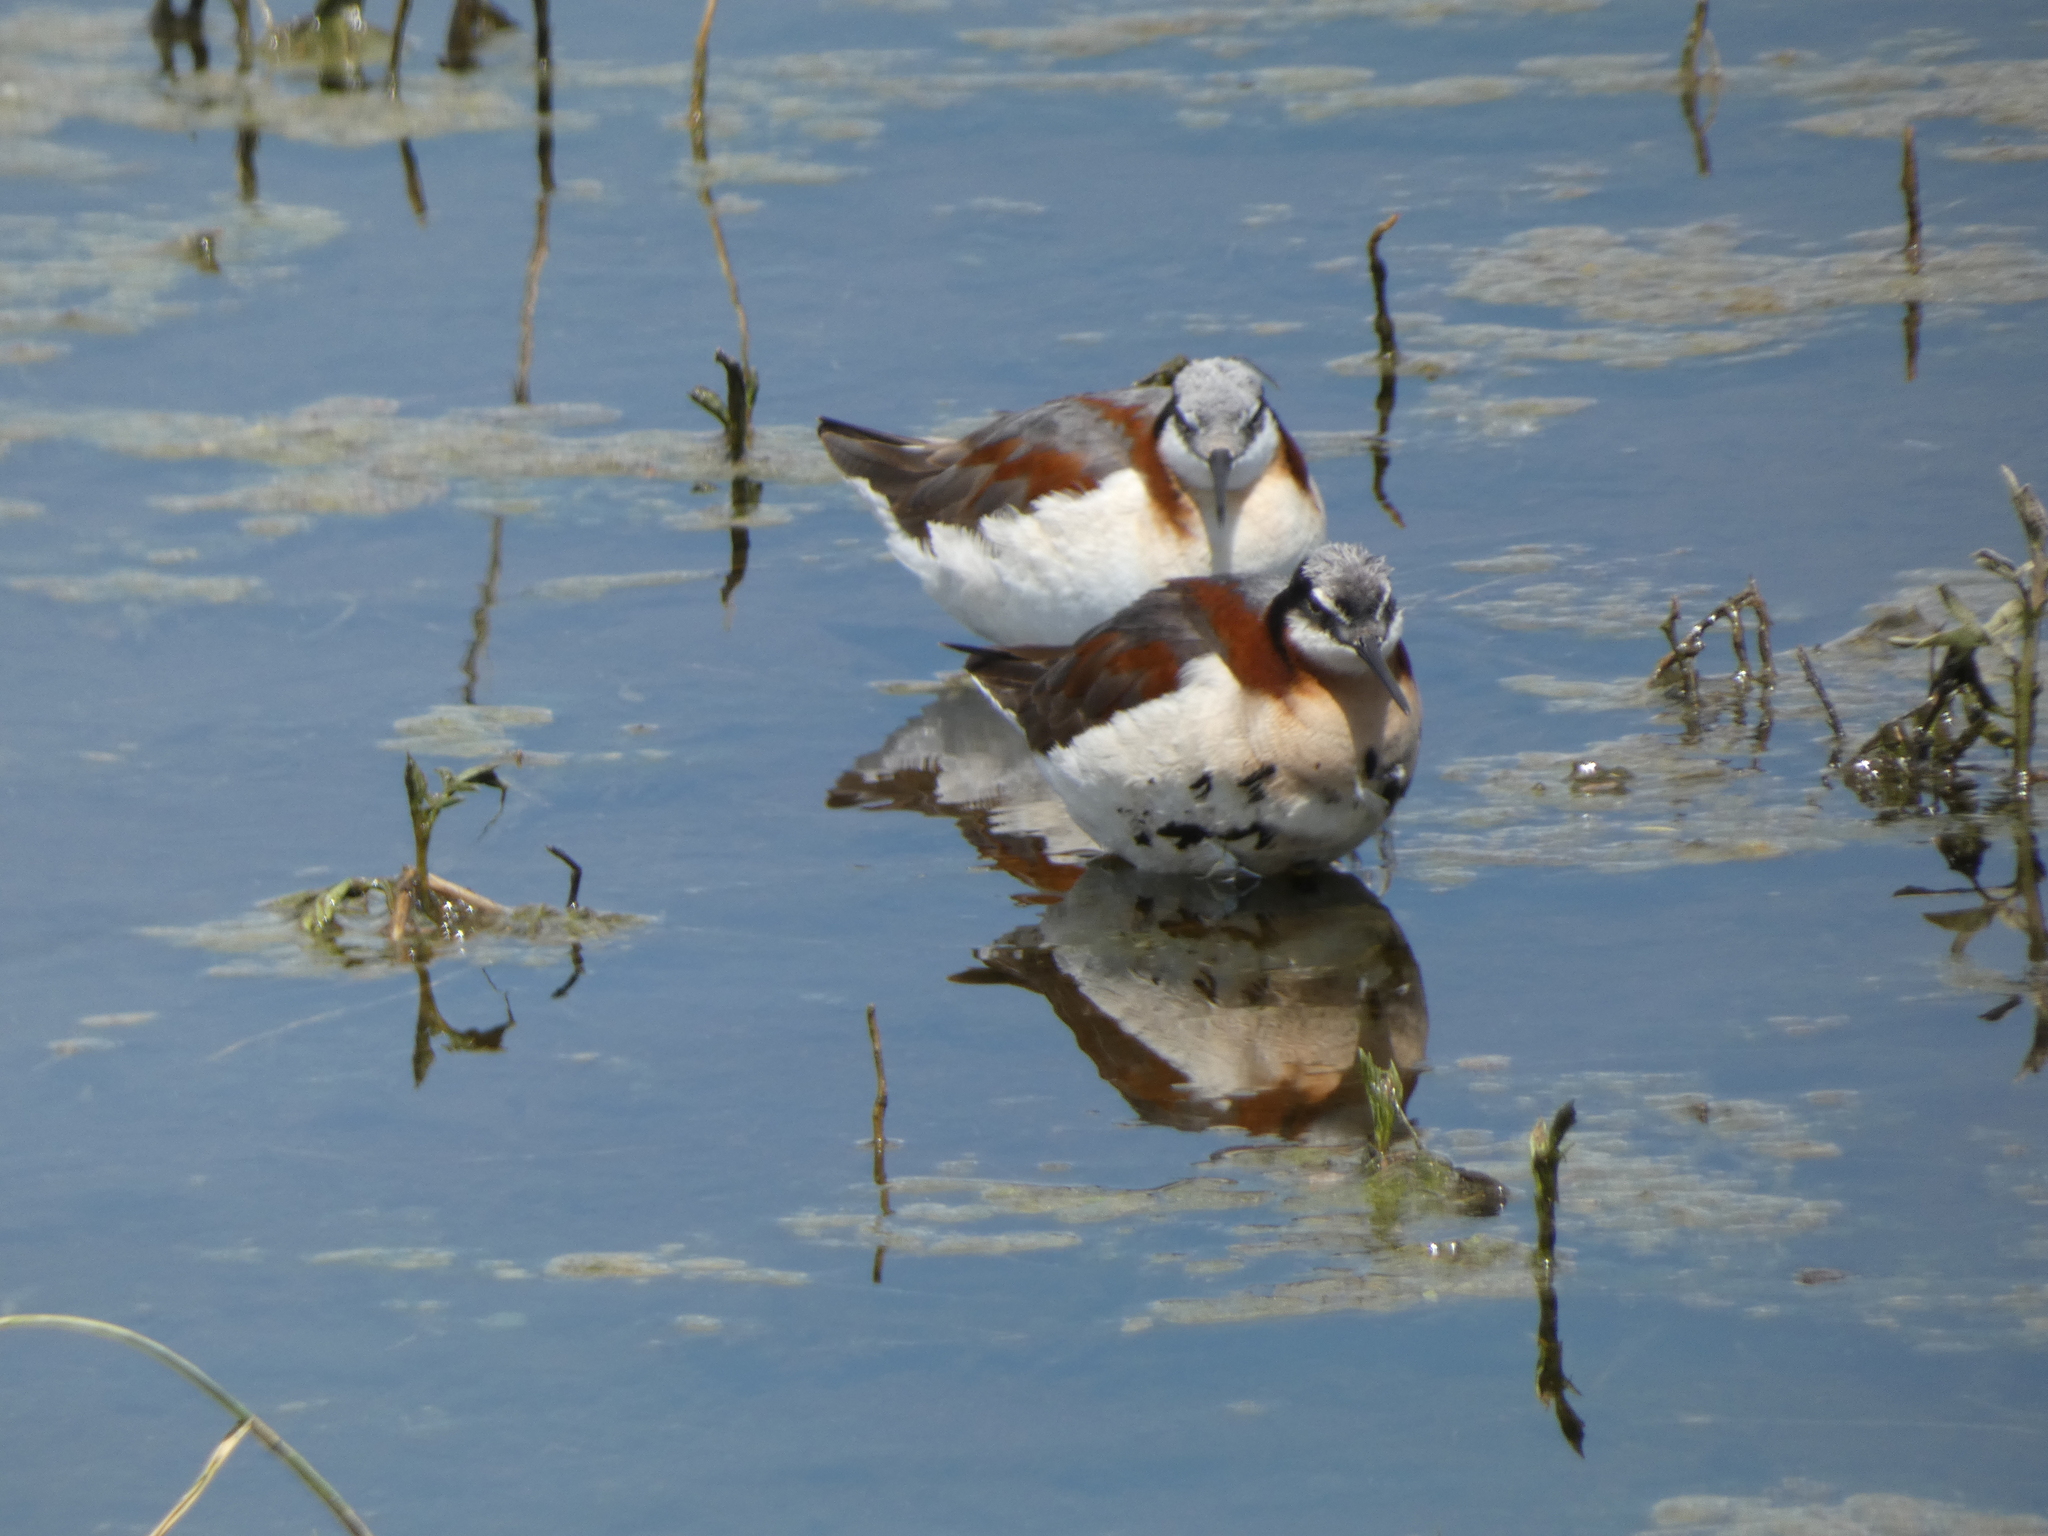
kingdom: Animalia
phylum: Chordata
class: Aves
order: Charadriiformes
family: Scolopacidae
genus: Phalaropus
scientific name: Phalaropus tricolor
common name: Wilson's phalarope
